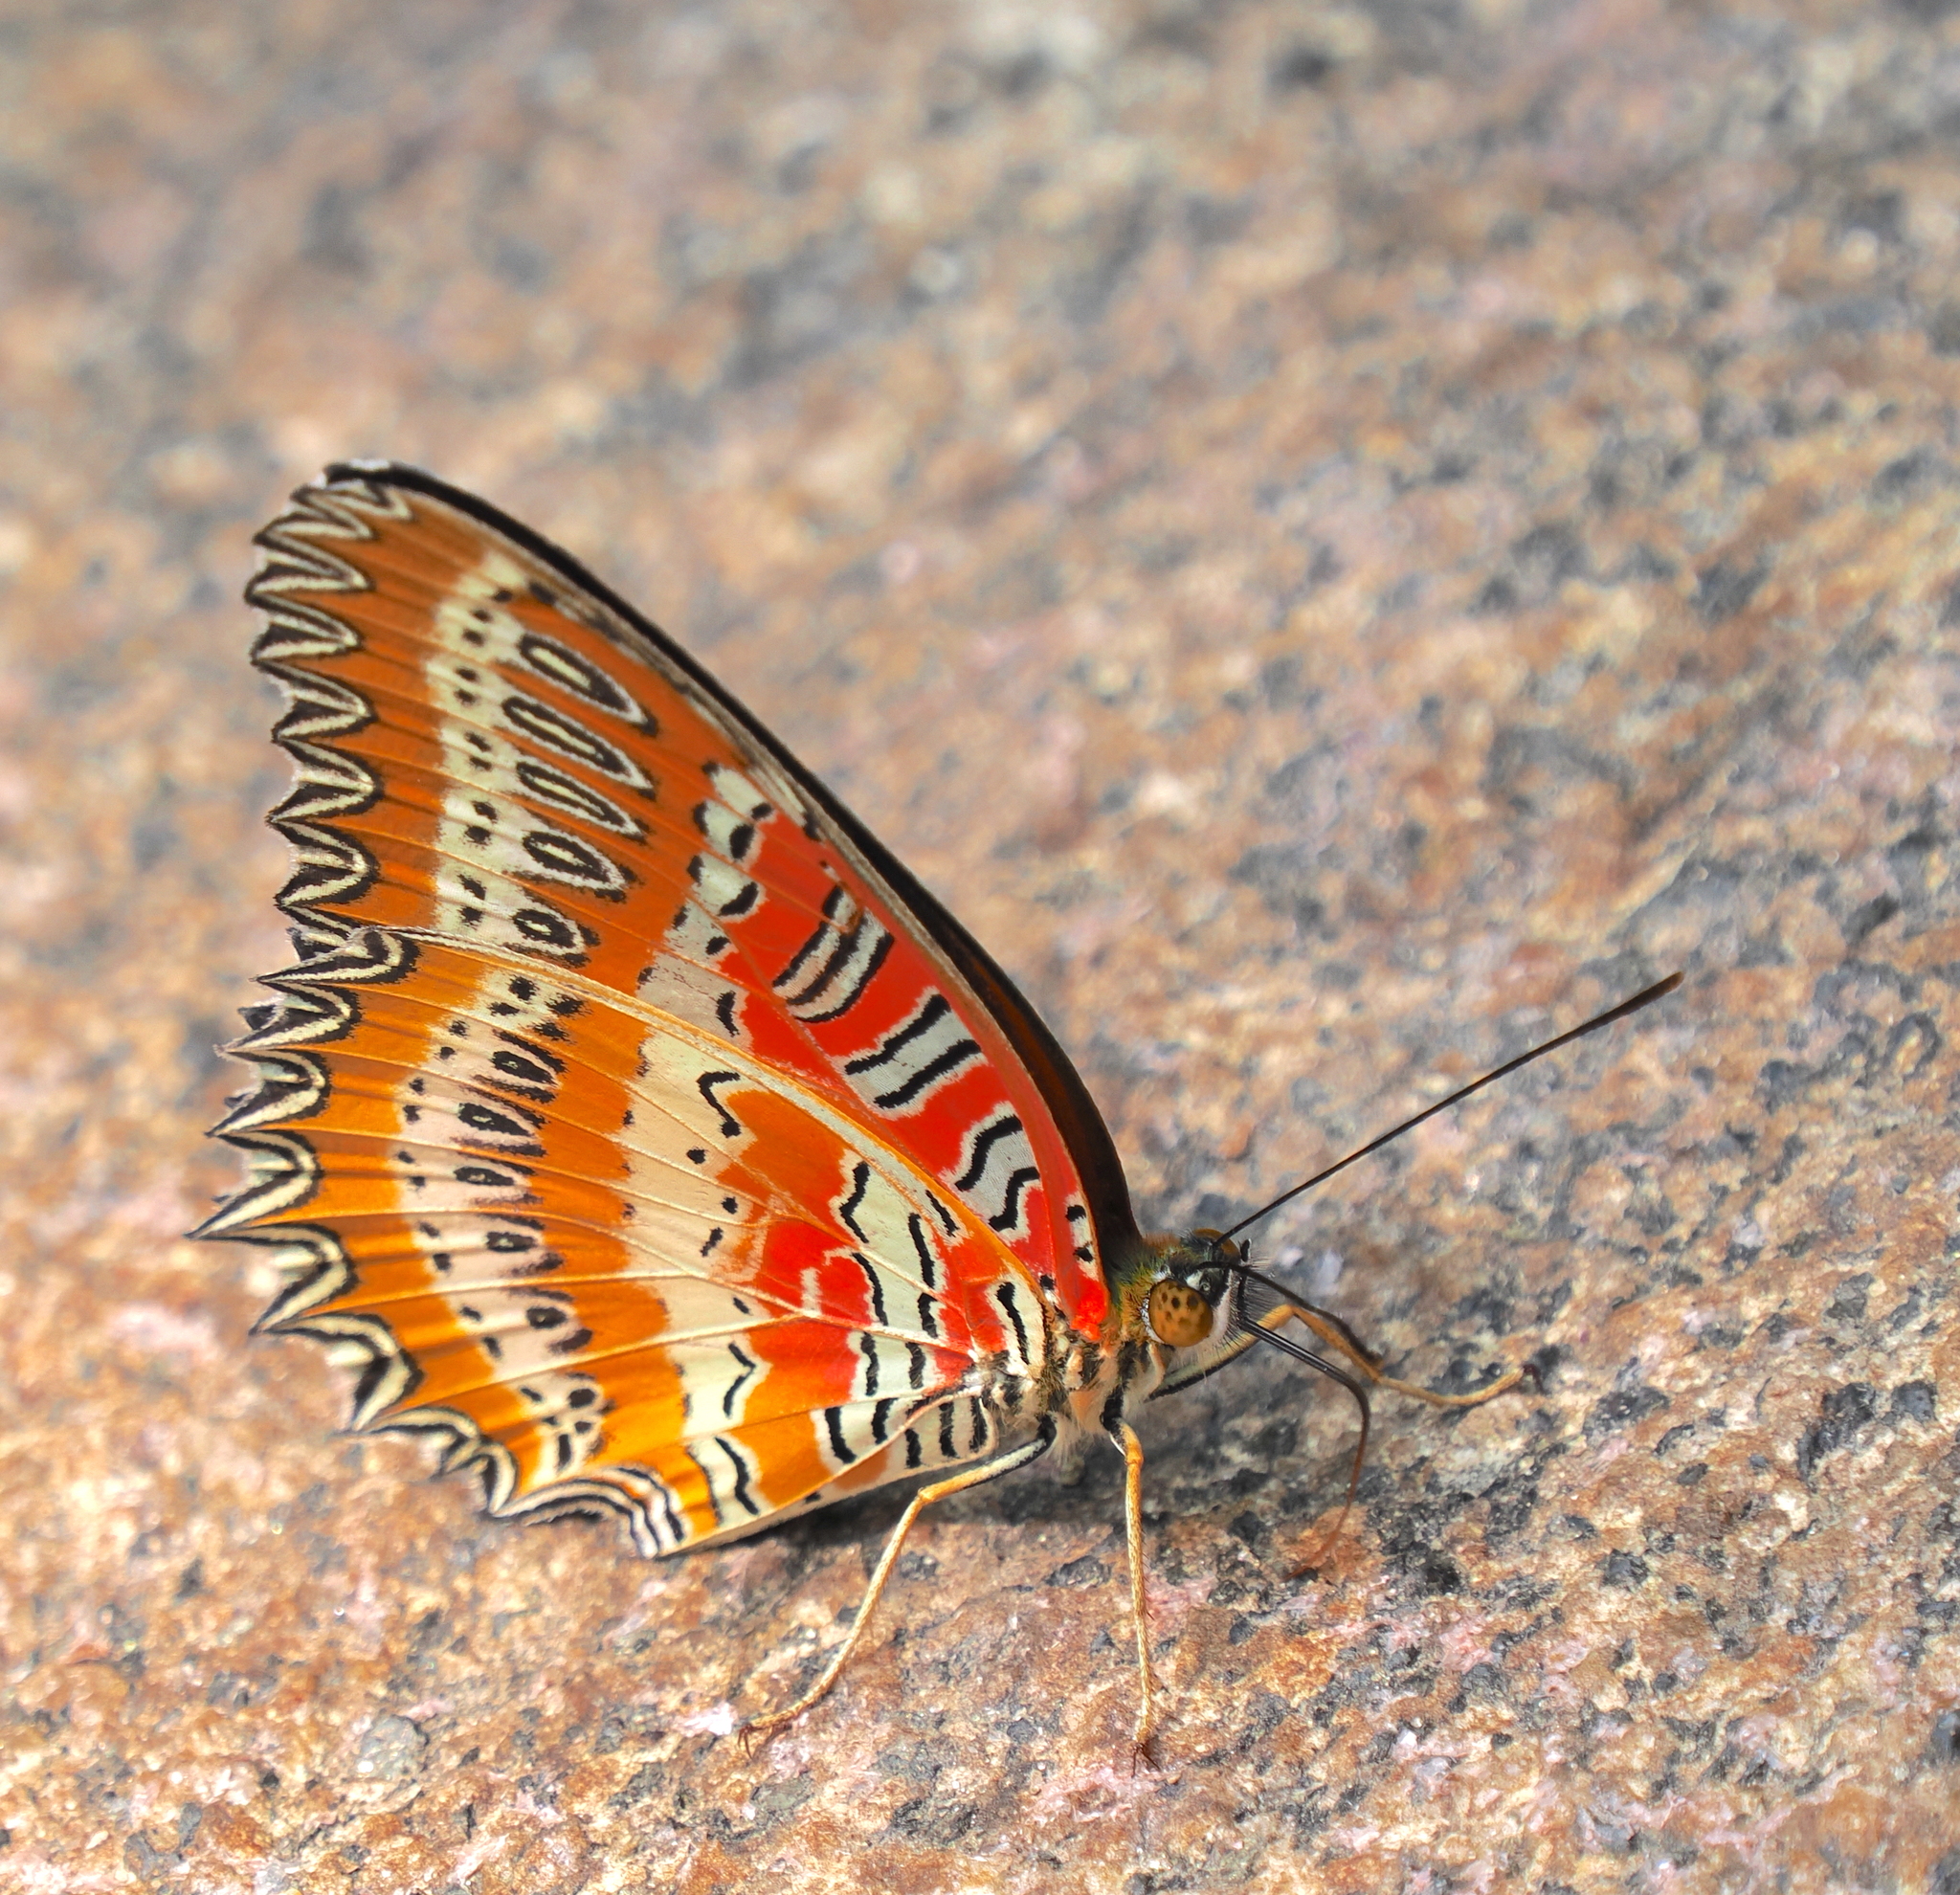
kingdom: Animalia
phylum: Arthropoda
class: Insecta
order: Lepidoptera
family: Nymphalidae
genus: Cethosia
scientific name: Cethosia biblis
